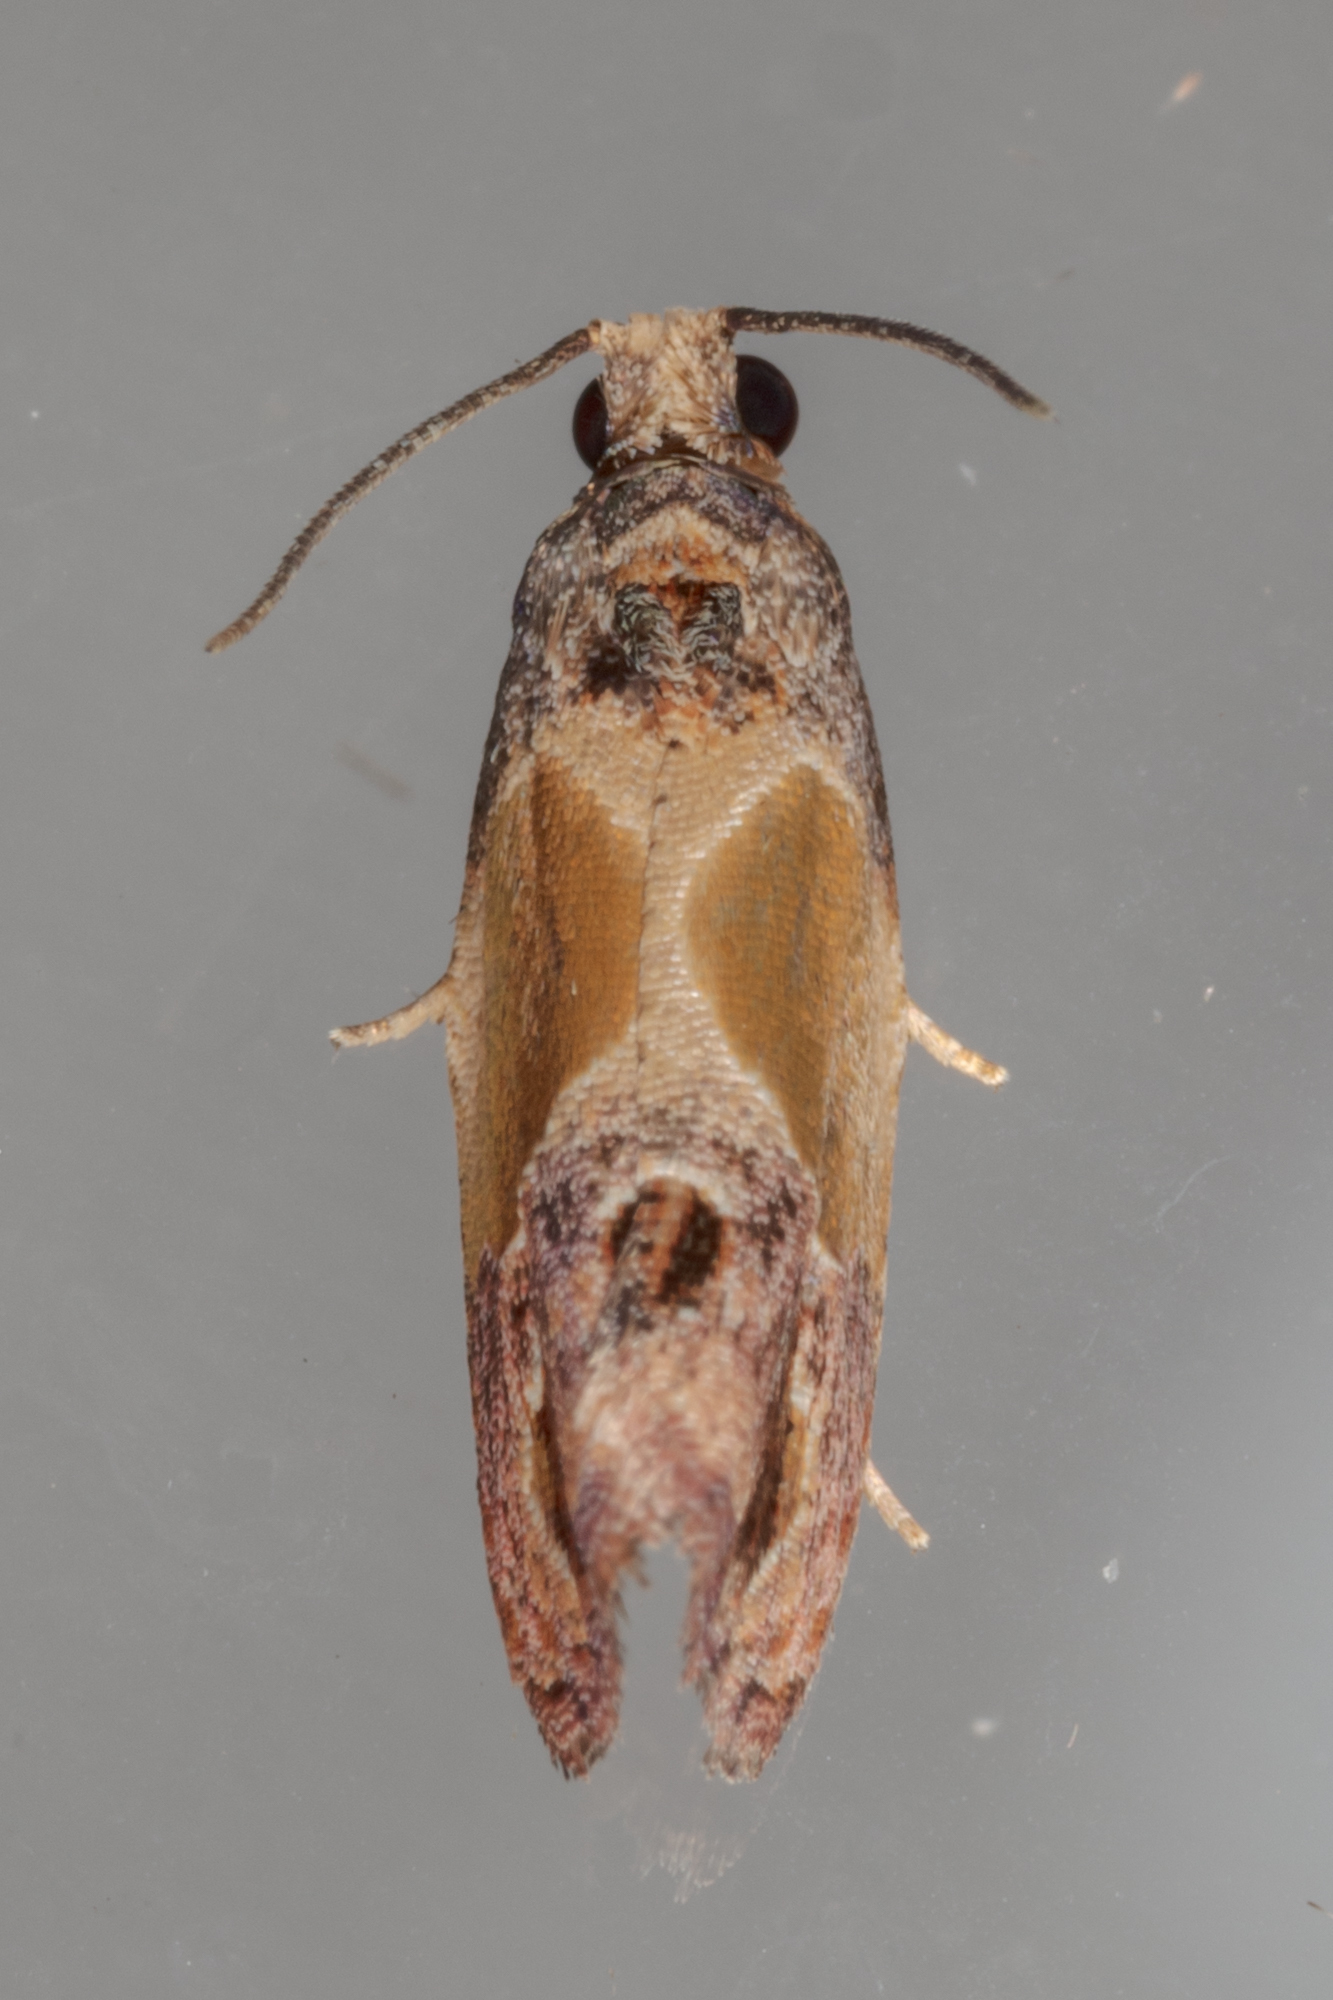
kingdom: Animalia
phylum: Arthropoda
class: Insecta
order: Lepidoptera
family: Tortricidae
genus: Eumarozia
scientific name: Eumarozia malachitana
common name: Sculptured moth
